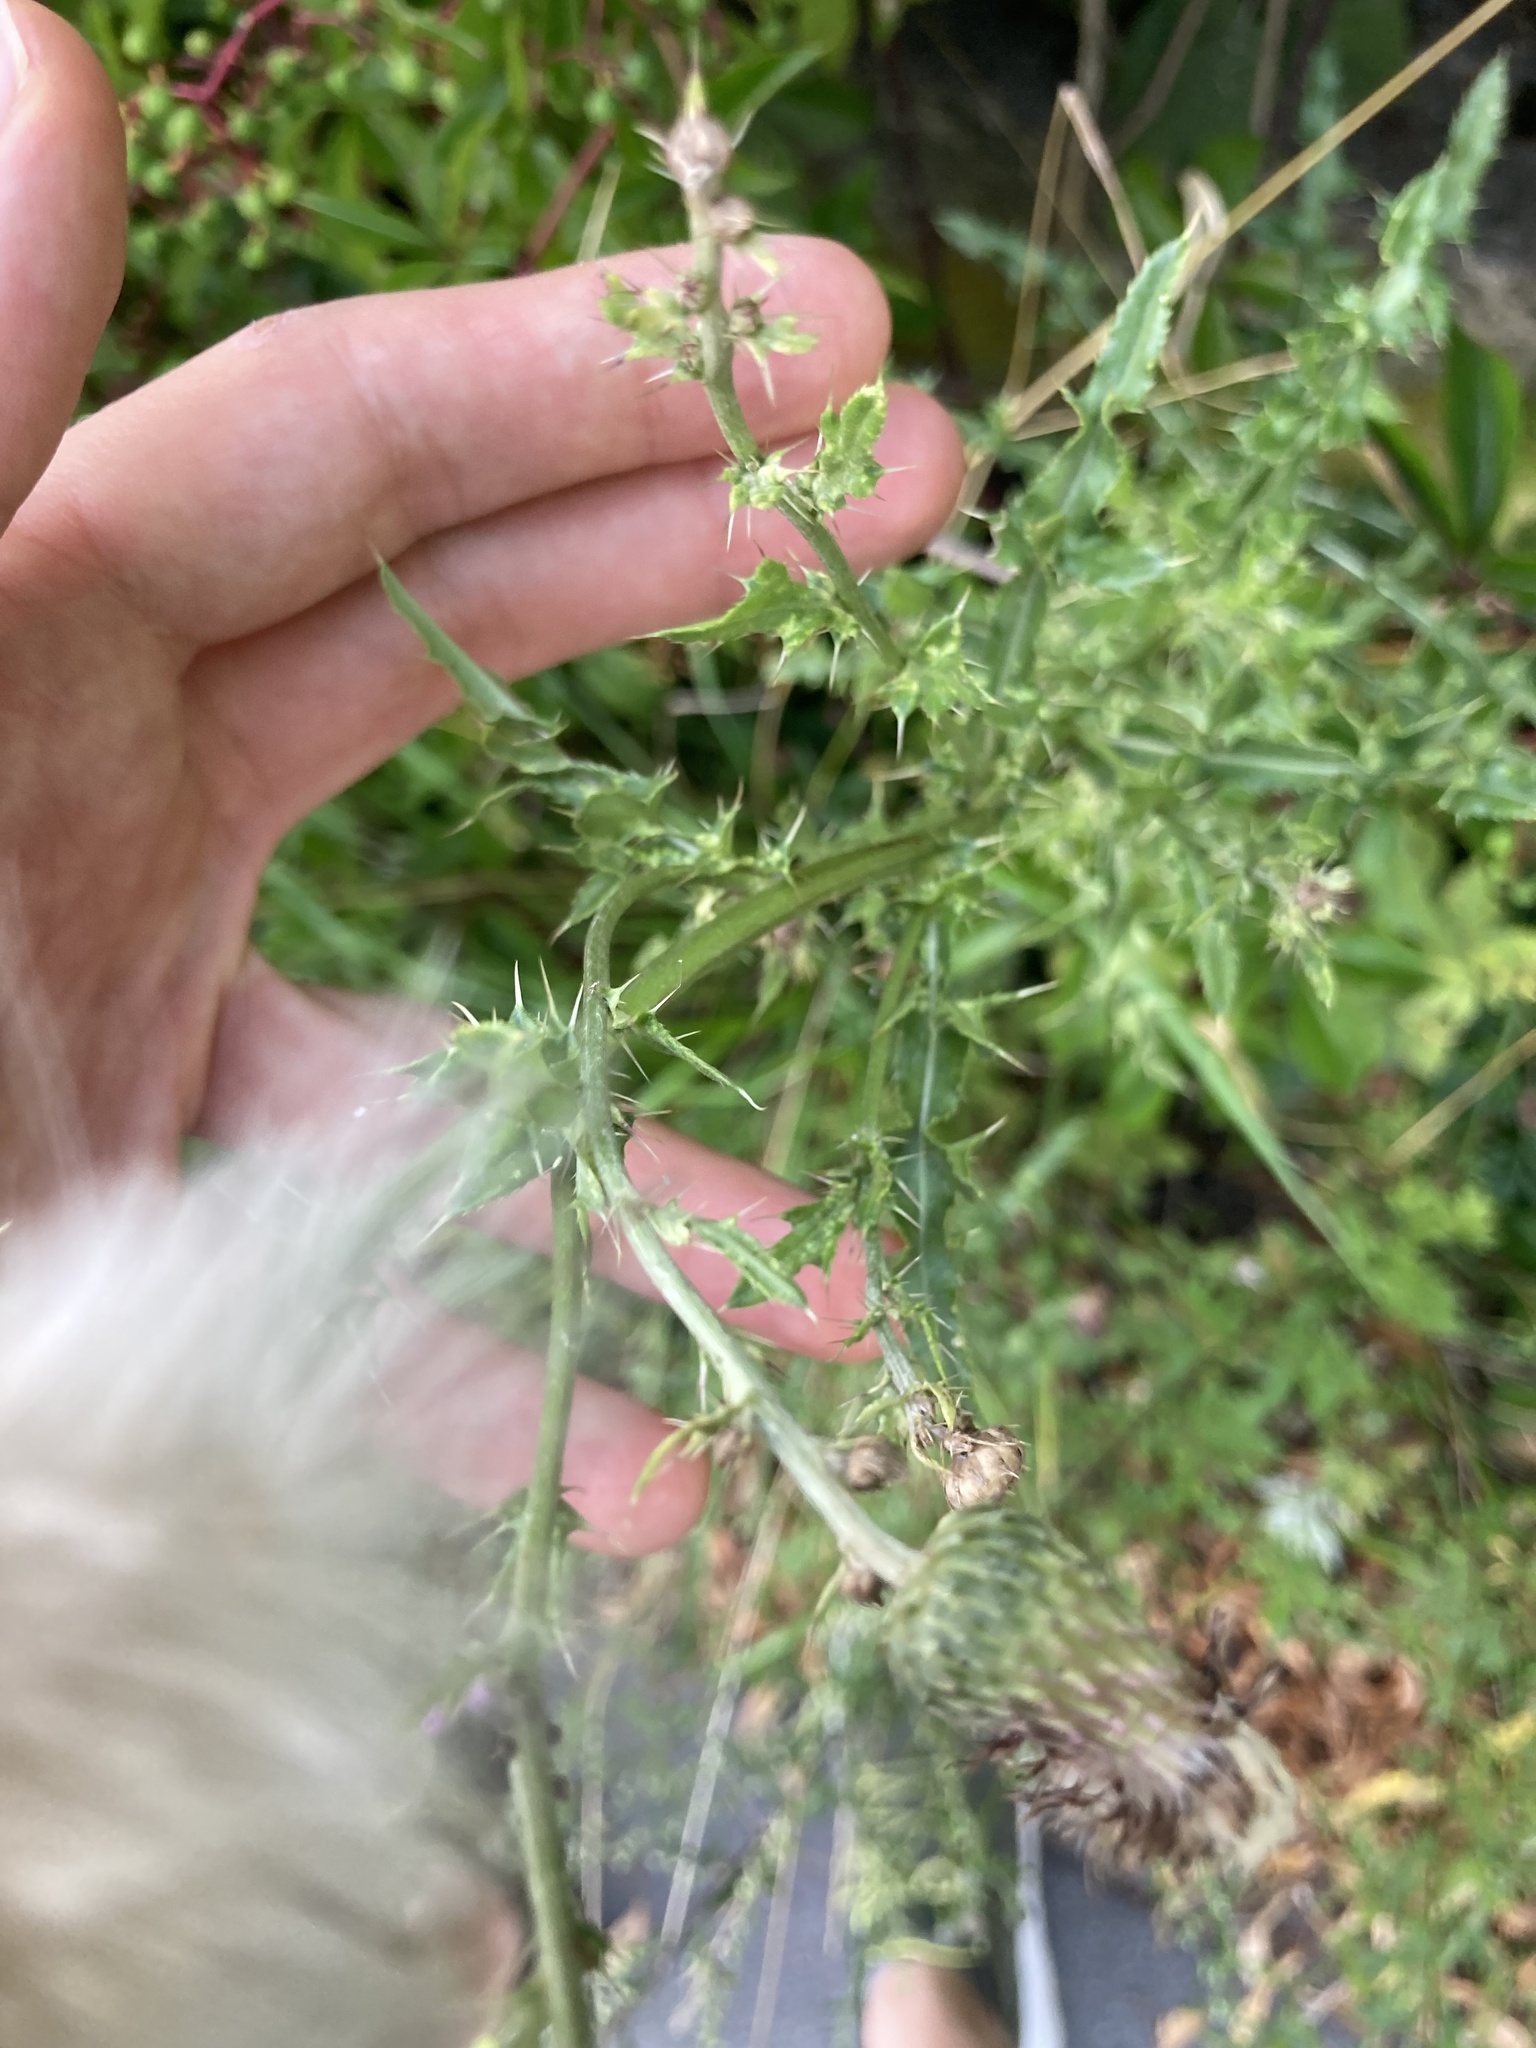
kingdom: Plantae
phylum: Tracheophyta
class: Magnoliopsida
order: Asterales
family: Asteraceae
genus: Cirsium
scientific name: Cirsium arvense
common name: Creeping thistle
